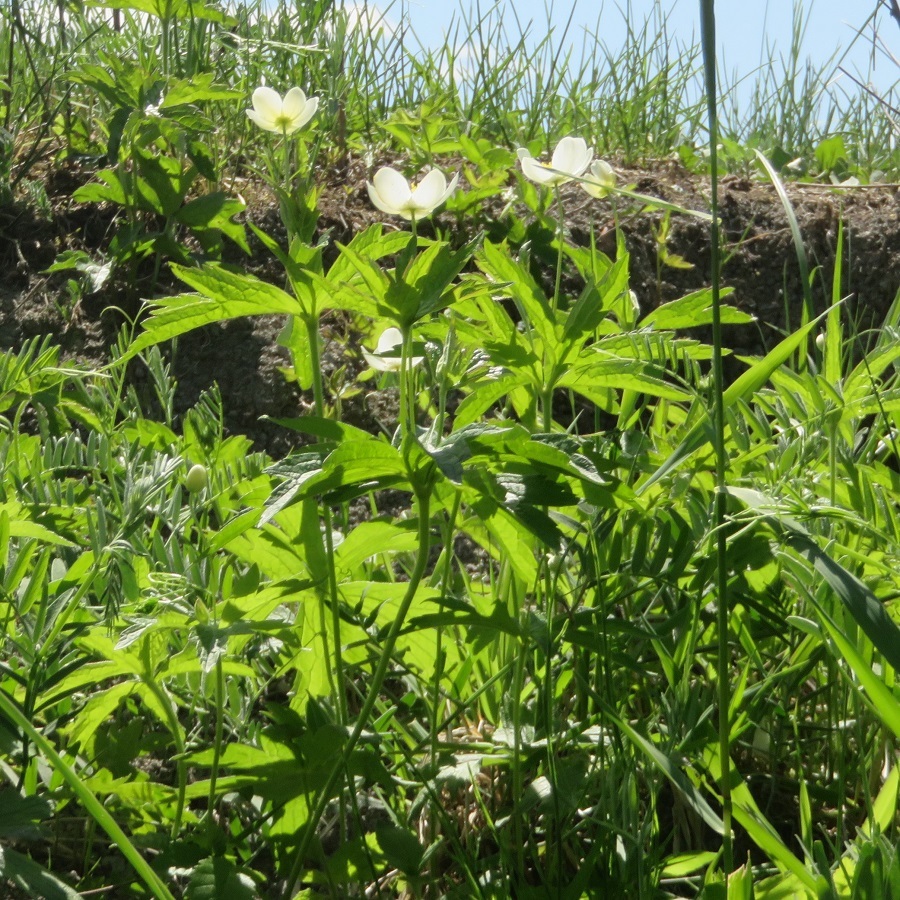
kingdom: Plantae
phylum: Tracheophyta
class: Magnoliopsida
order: Ranunculales
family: Ranunculaceae
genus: Anemonastrum
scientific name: Anemonastrum canadense
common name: Canada anemone
